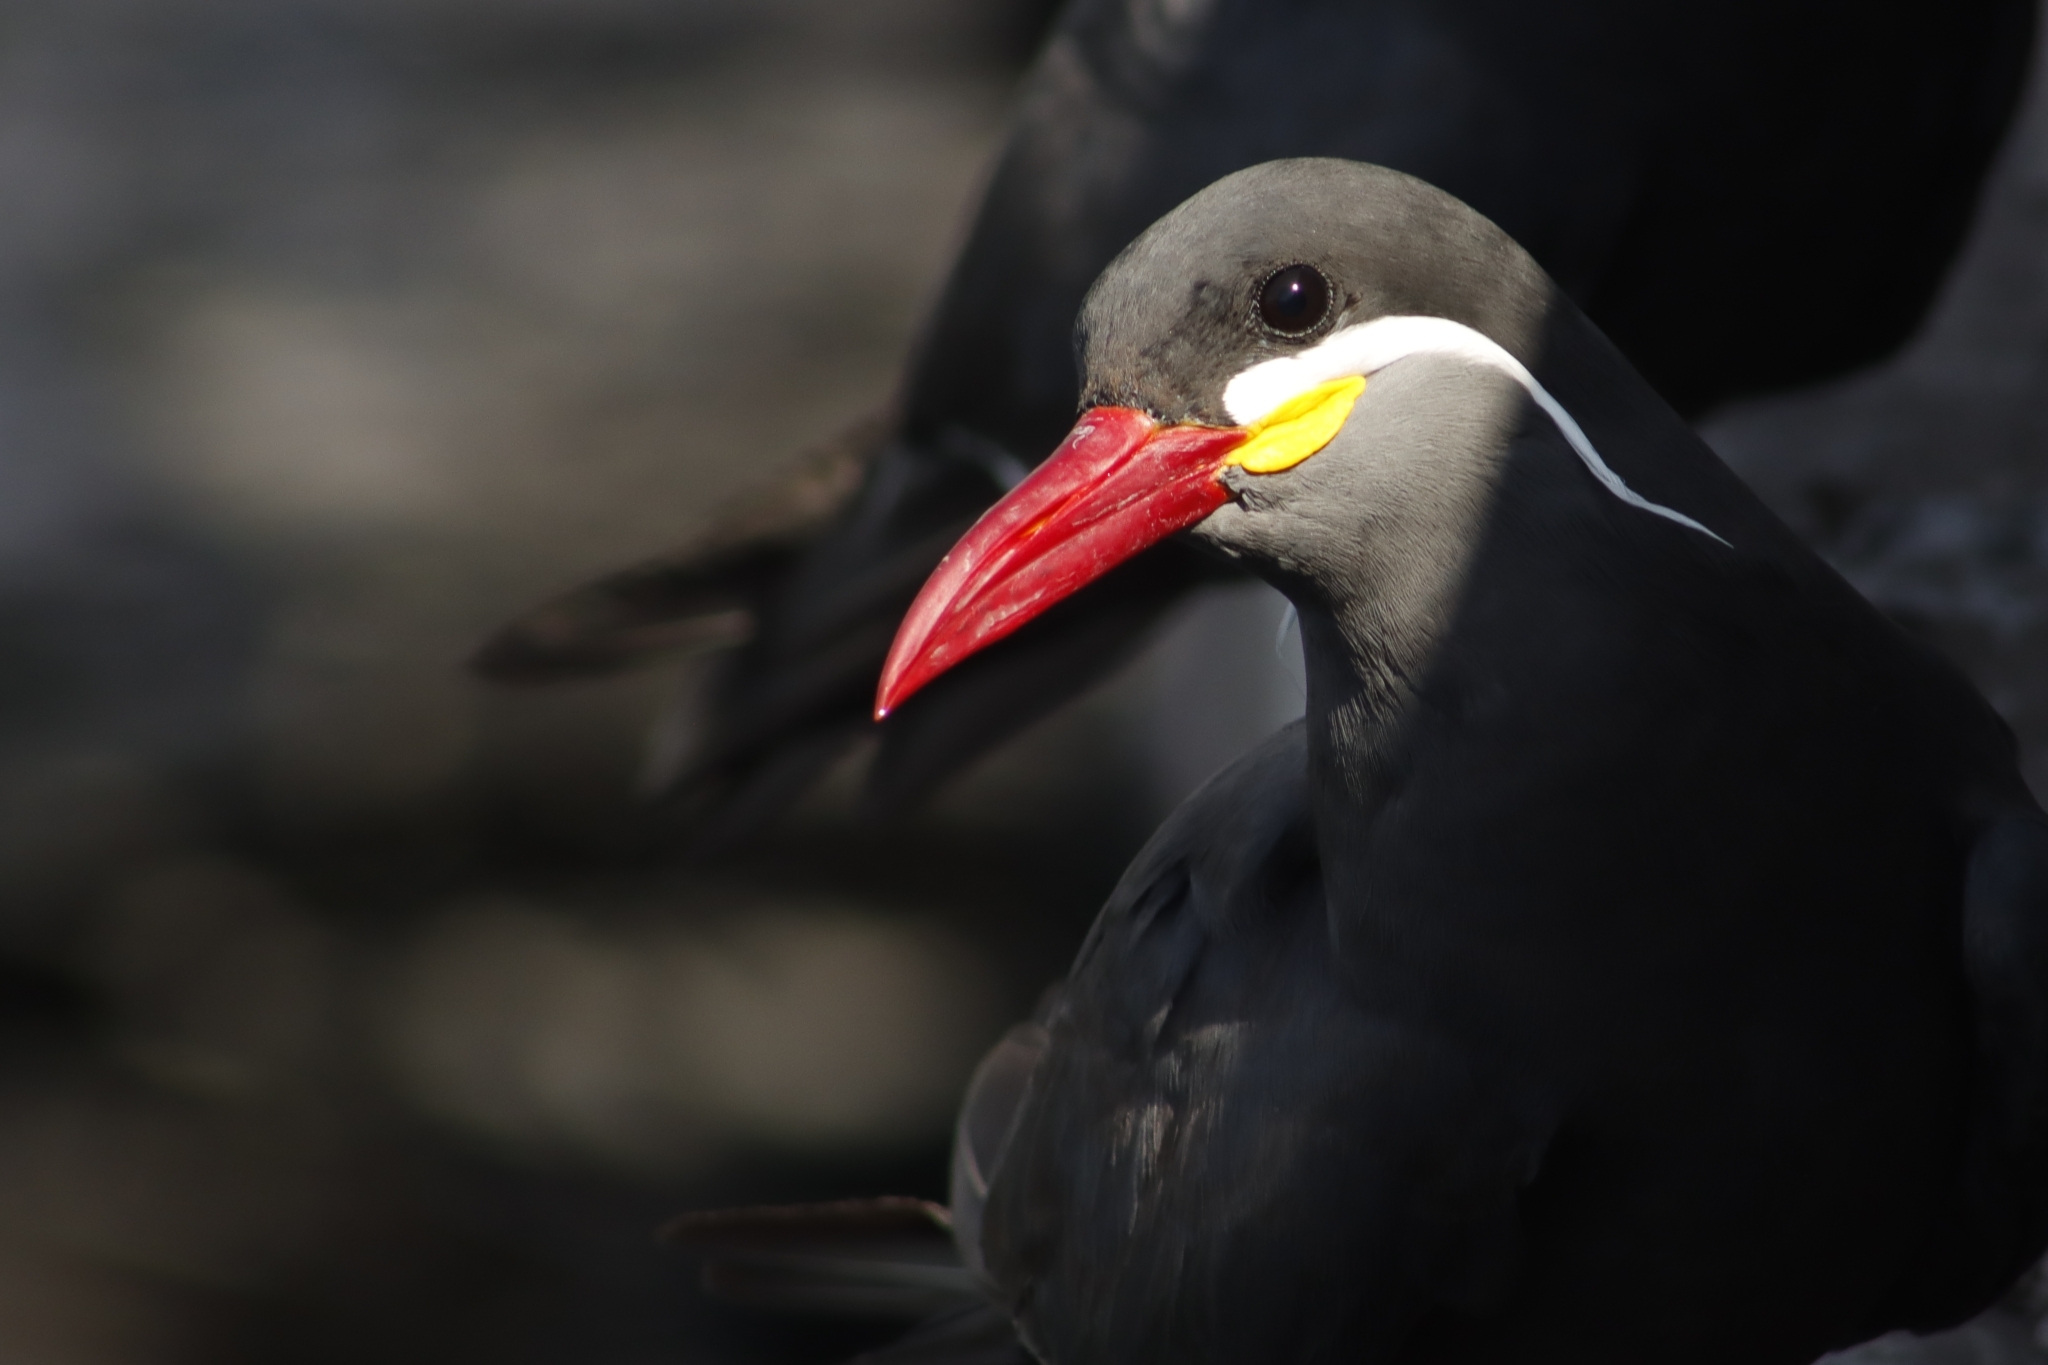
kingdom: Animalia
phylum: Chordata
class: Aves
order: Charadriiformes
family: Laridae
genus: Larosterna
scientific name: Larosterna inca
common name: Inca tern
